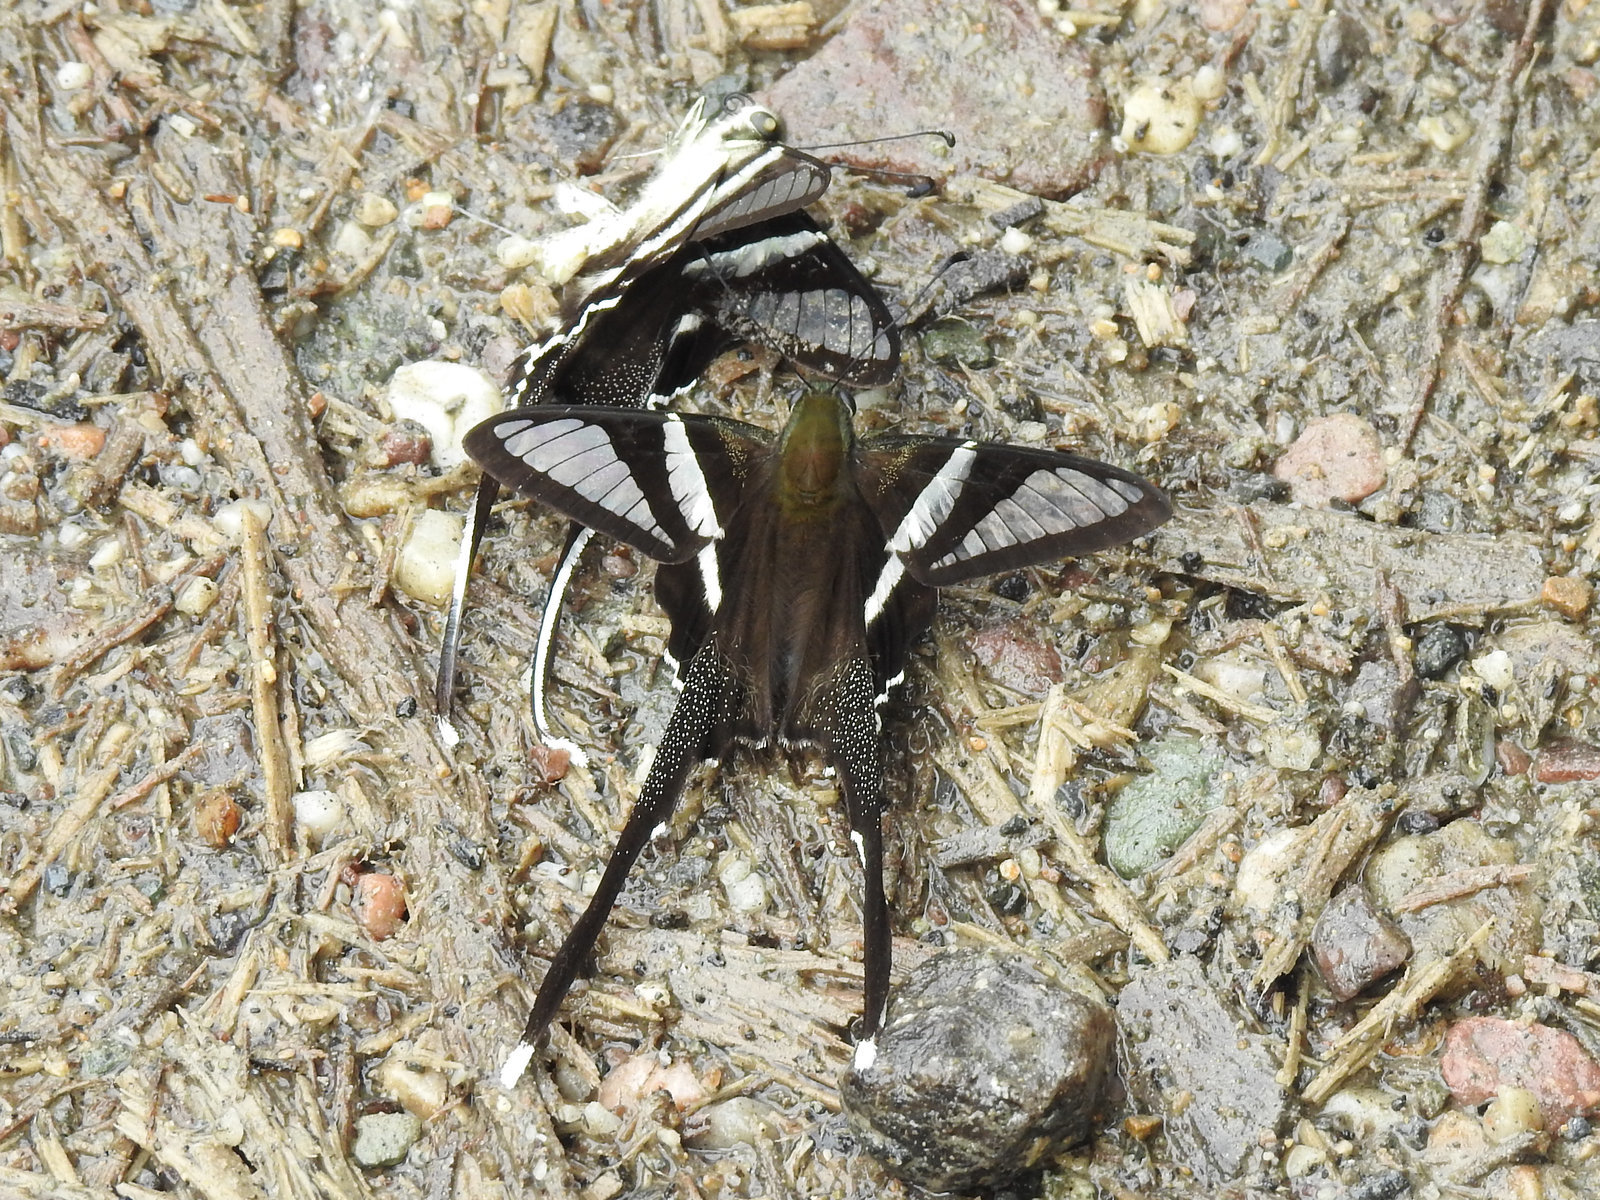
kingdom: Animalia
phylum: Arthropoda
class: Insecta
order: Lepidoptera
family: Papilionidae
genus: Lamproptera
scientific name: Lamproptera curius
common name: White dragontail
